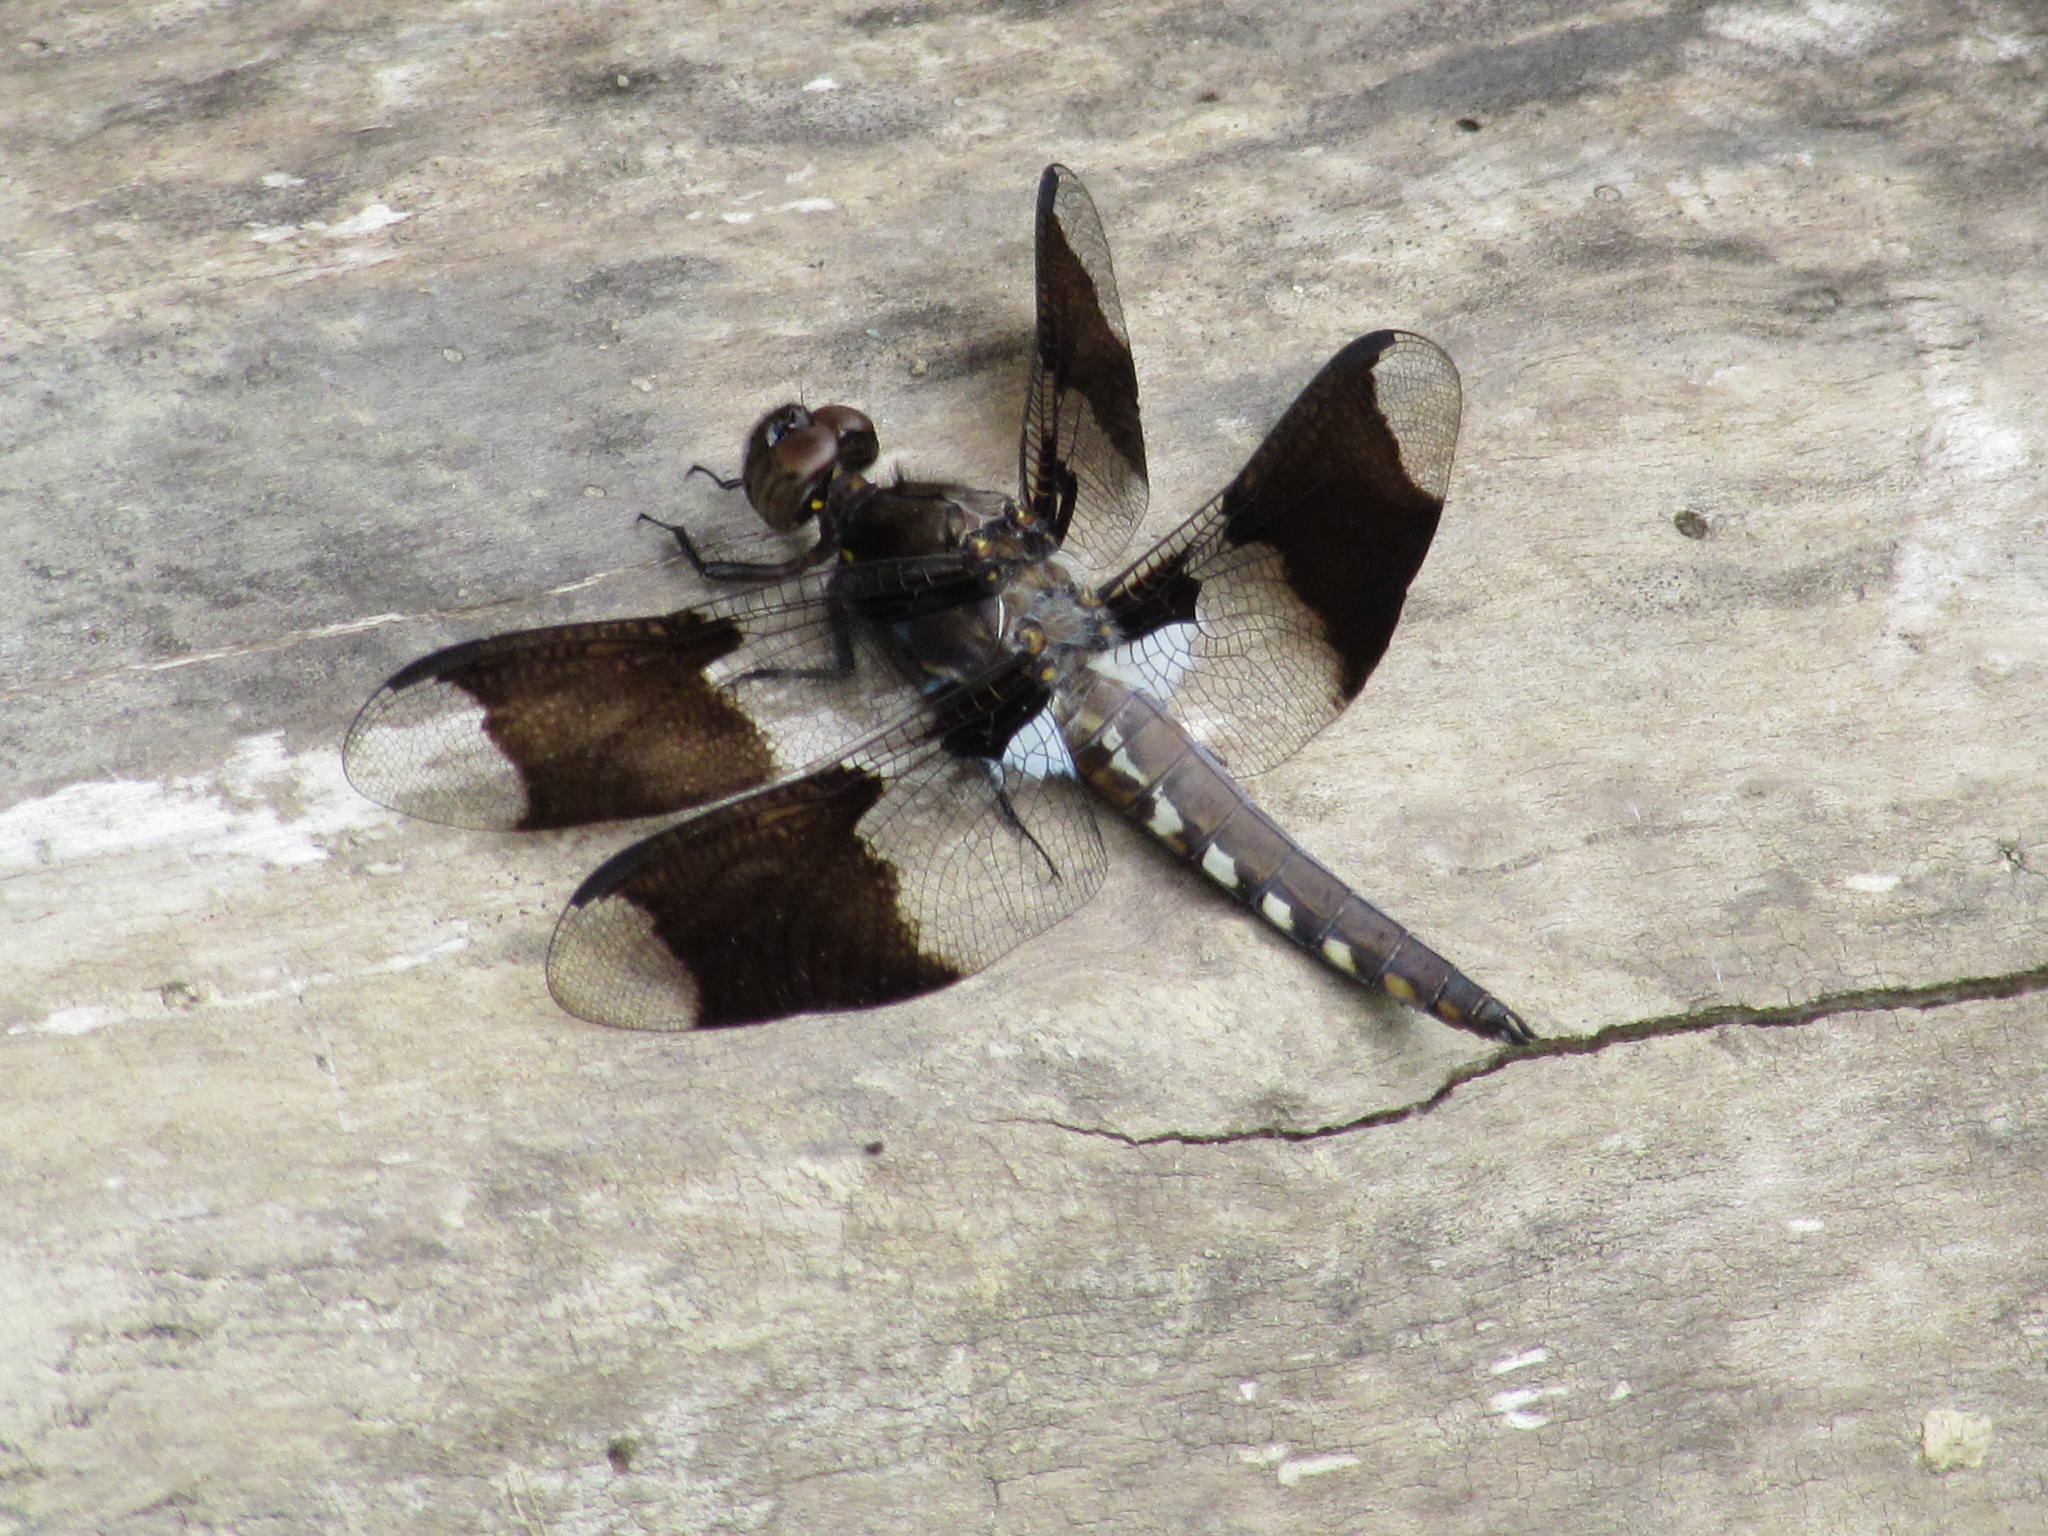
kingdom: Animalia
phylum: Arthropoda
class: Insecta
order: Odonata
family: Libellulidae
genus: Plathemis
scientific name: Plathemis lydia
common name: Common whitetail
